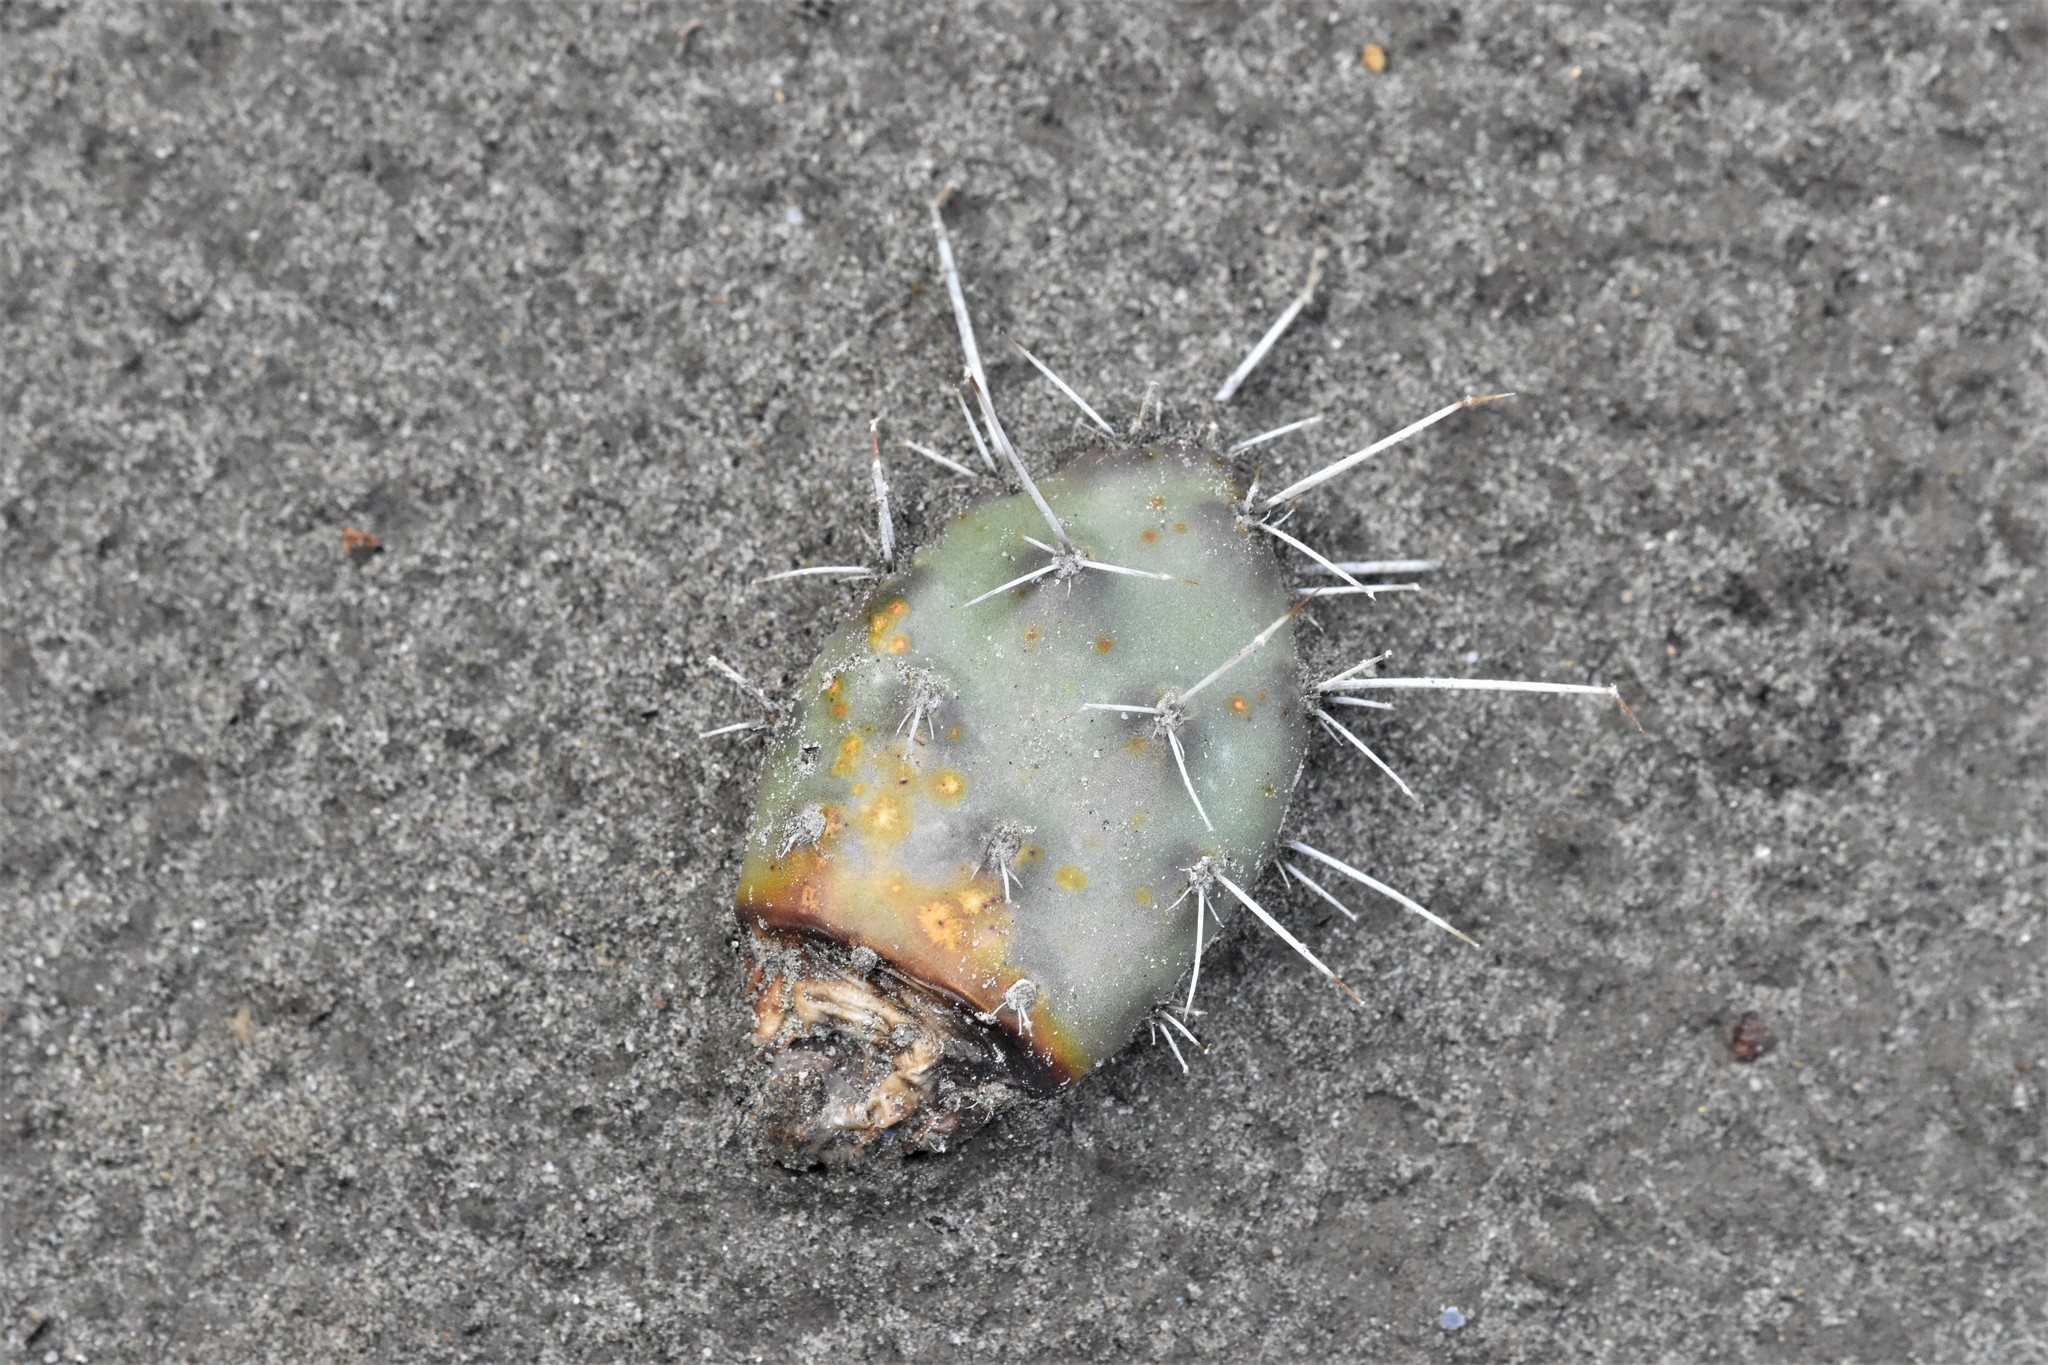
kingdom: Plantae
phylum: Tracheophyta
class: Magnoliopsida
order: Caryophyllales
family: Cactaceae
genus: Opuntia
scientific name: Opuntia fragilis
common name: Brittle cactus
